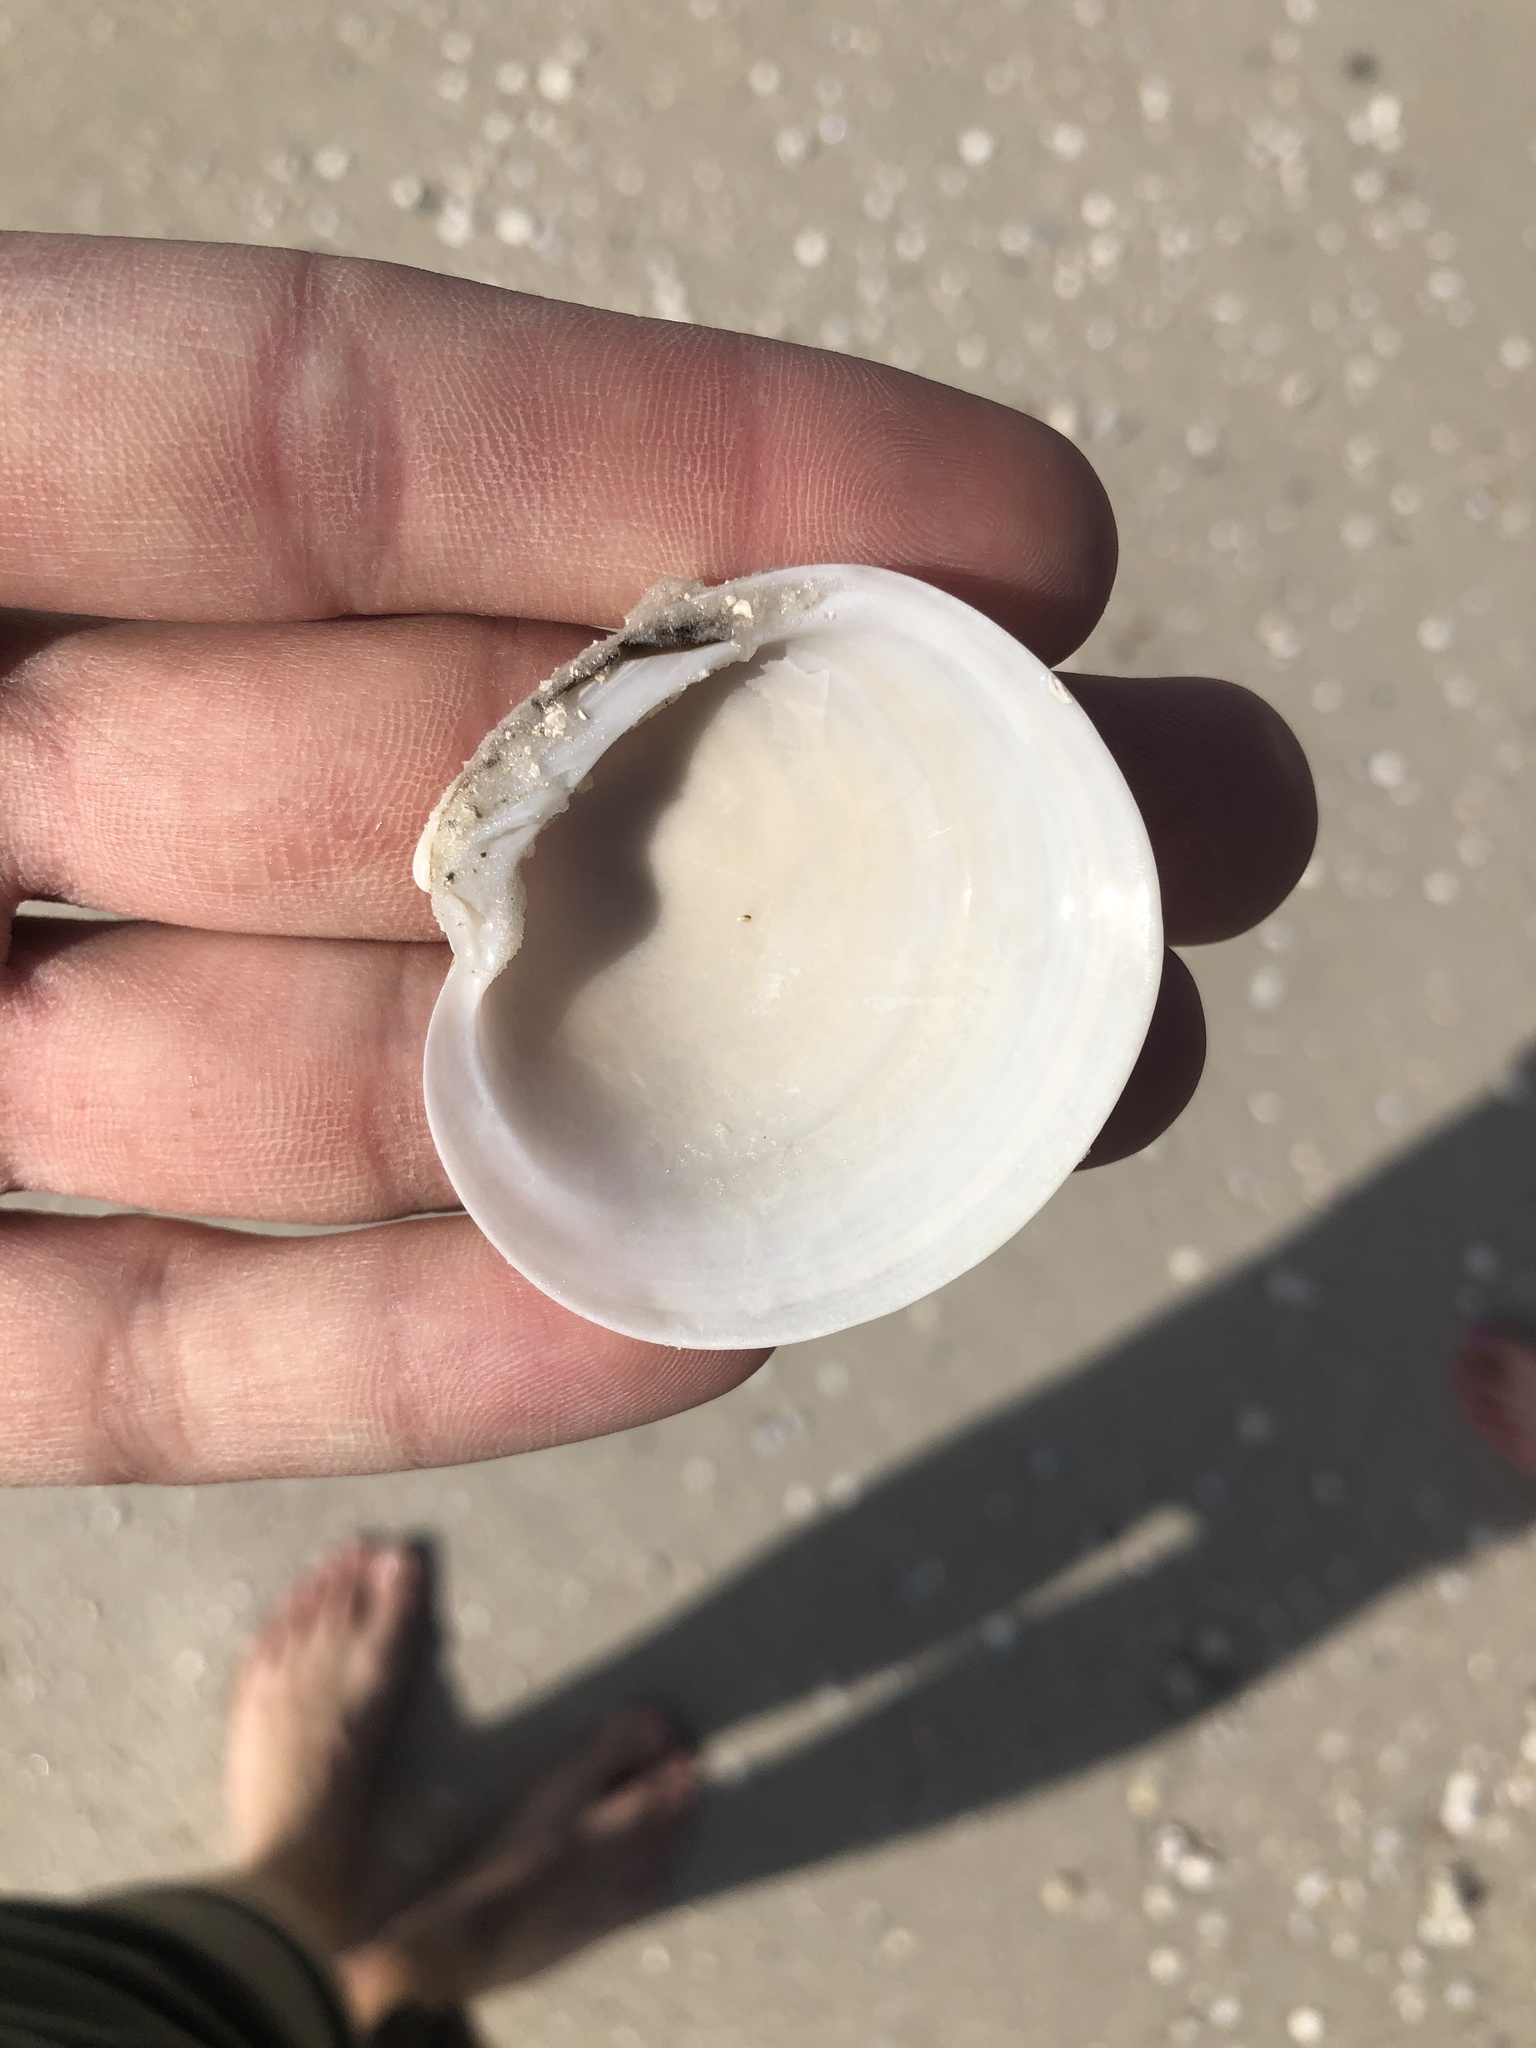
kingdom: Animalia
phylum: Mollusca
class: Bivalvia
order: Venerida
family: Veneridae
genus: Dosinia
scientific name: Dosinia discus
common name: Disk dosinia
